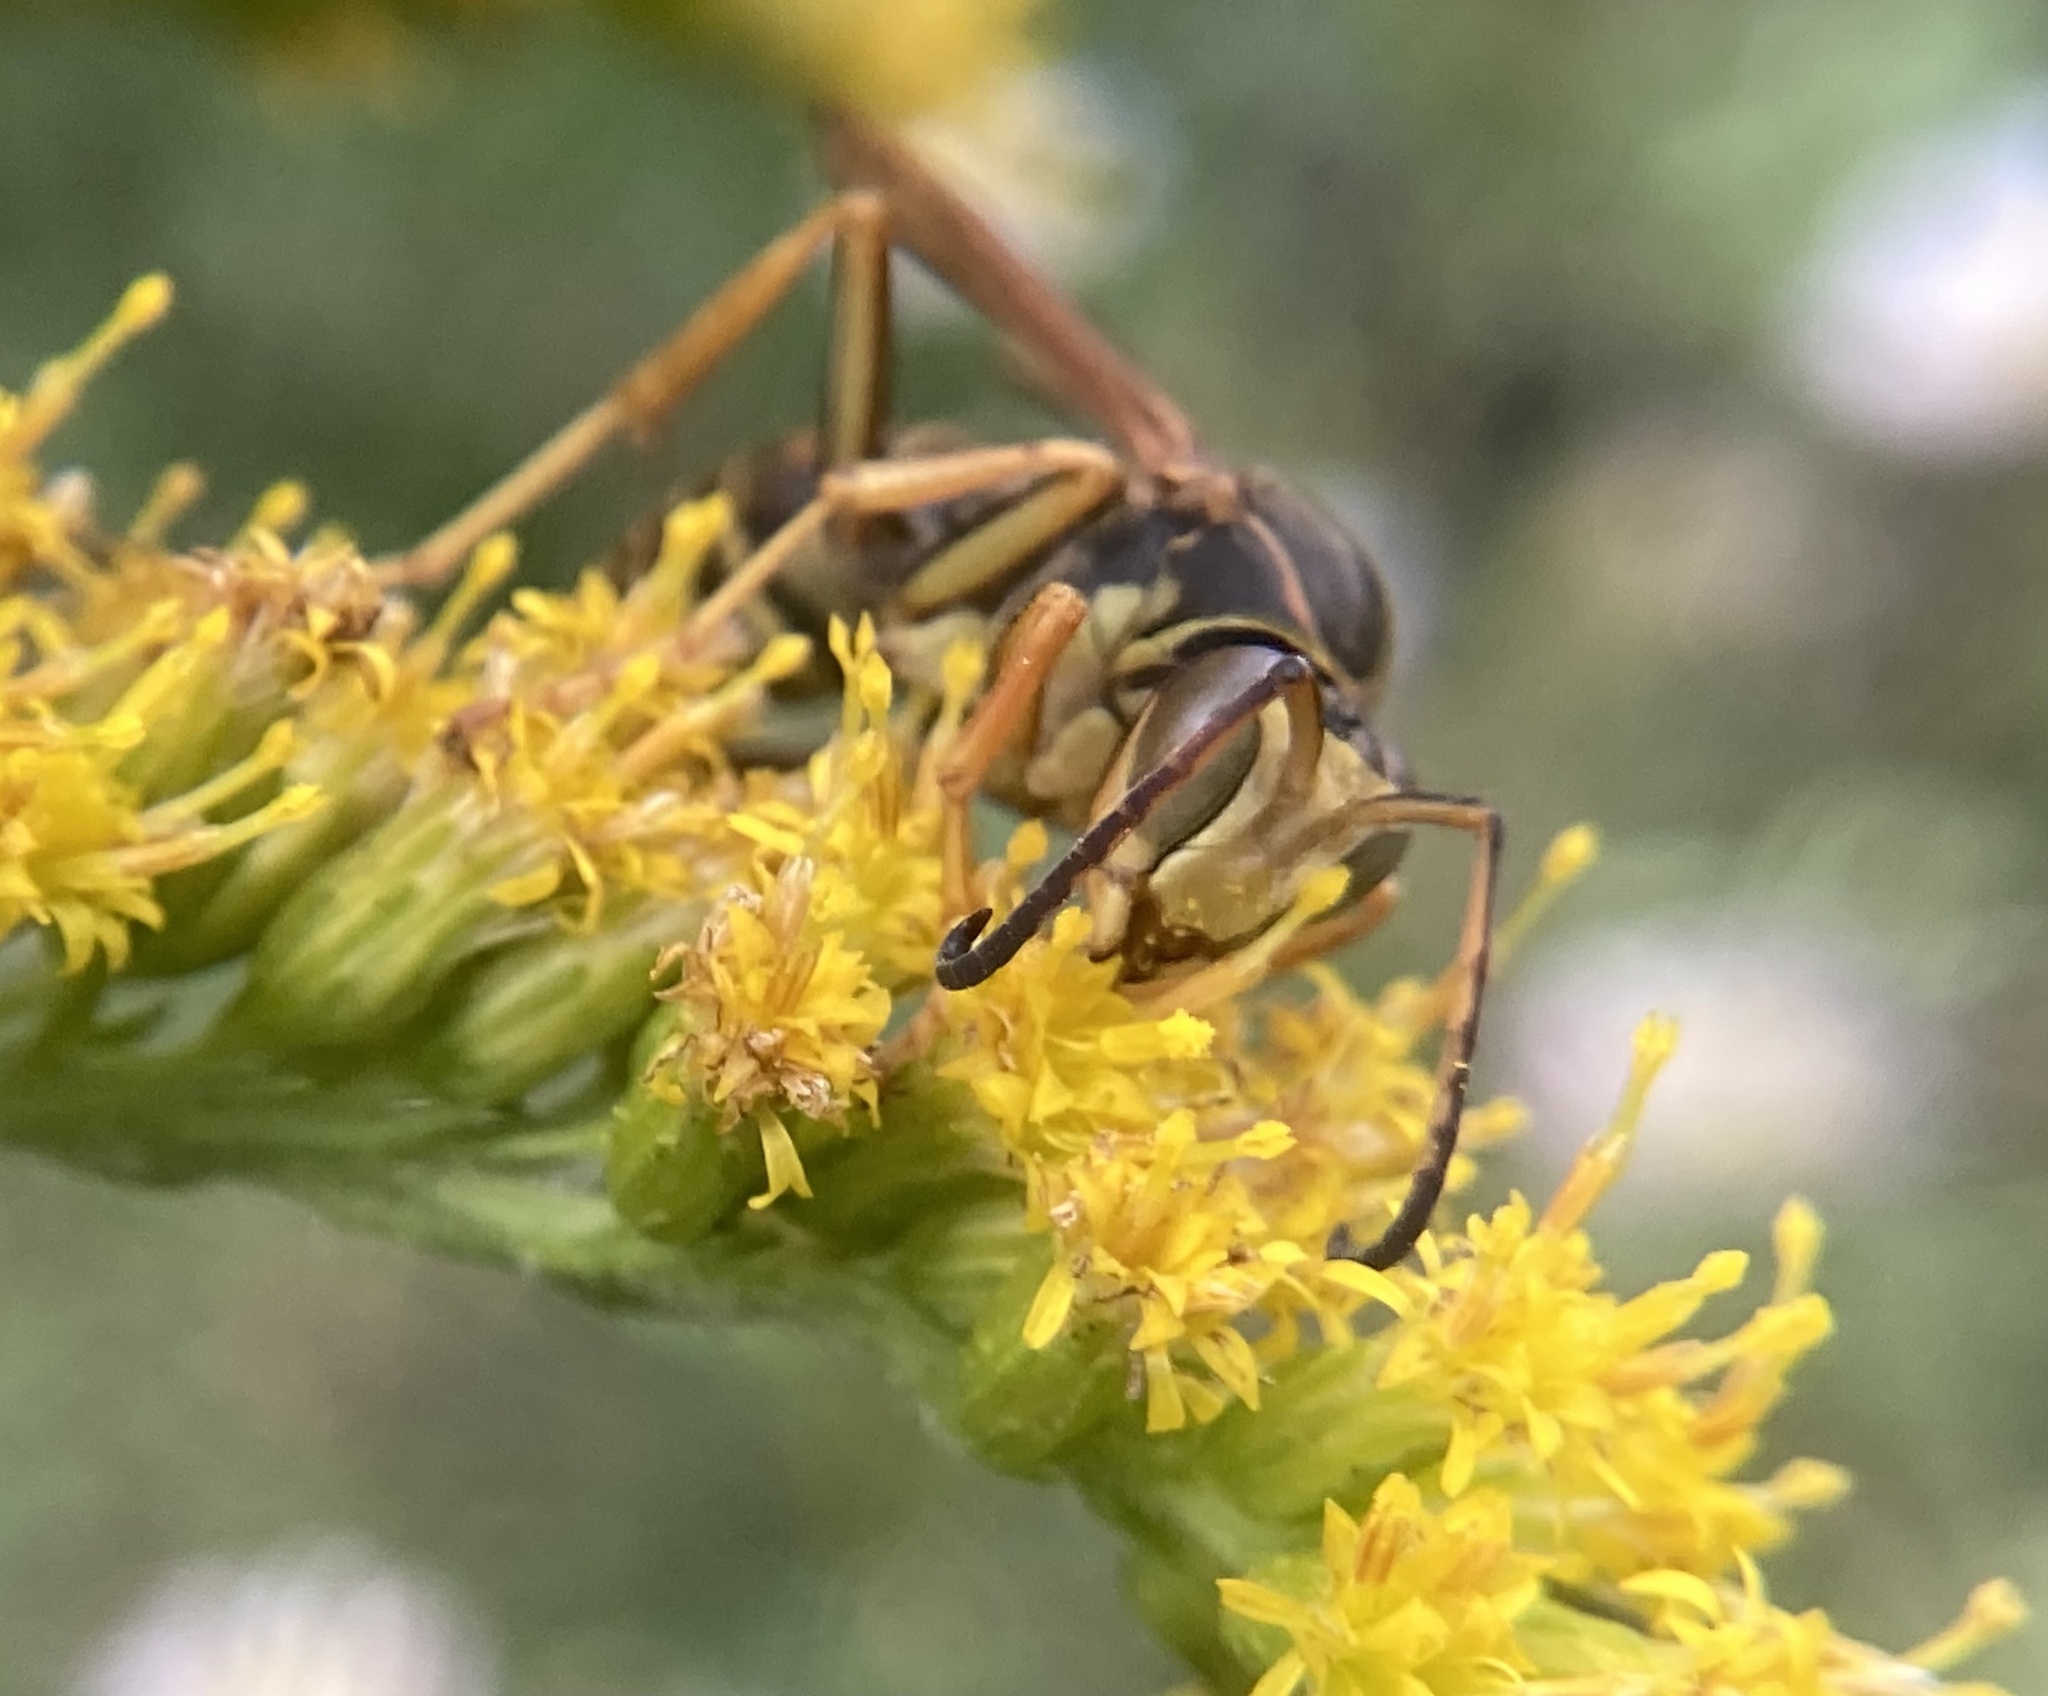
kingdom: Animalia
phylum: Arthropoda
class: Insecta
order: Hymenoptera
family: Eumenidae
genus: Polistes
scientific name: Polistes fuscatus
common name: Dark paper wasp
